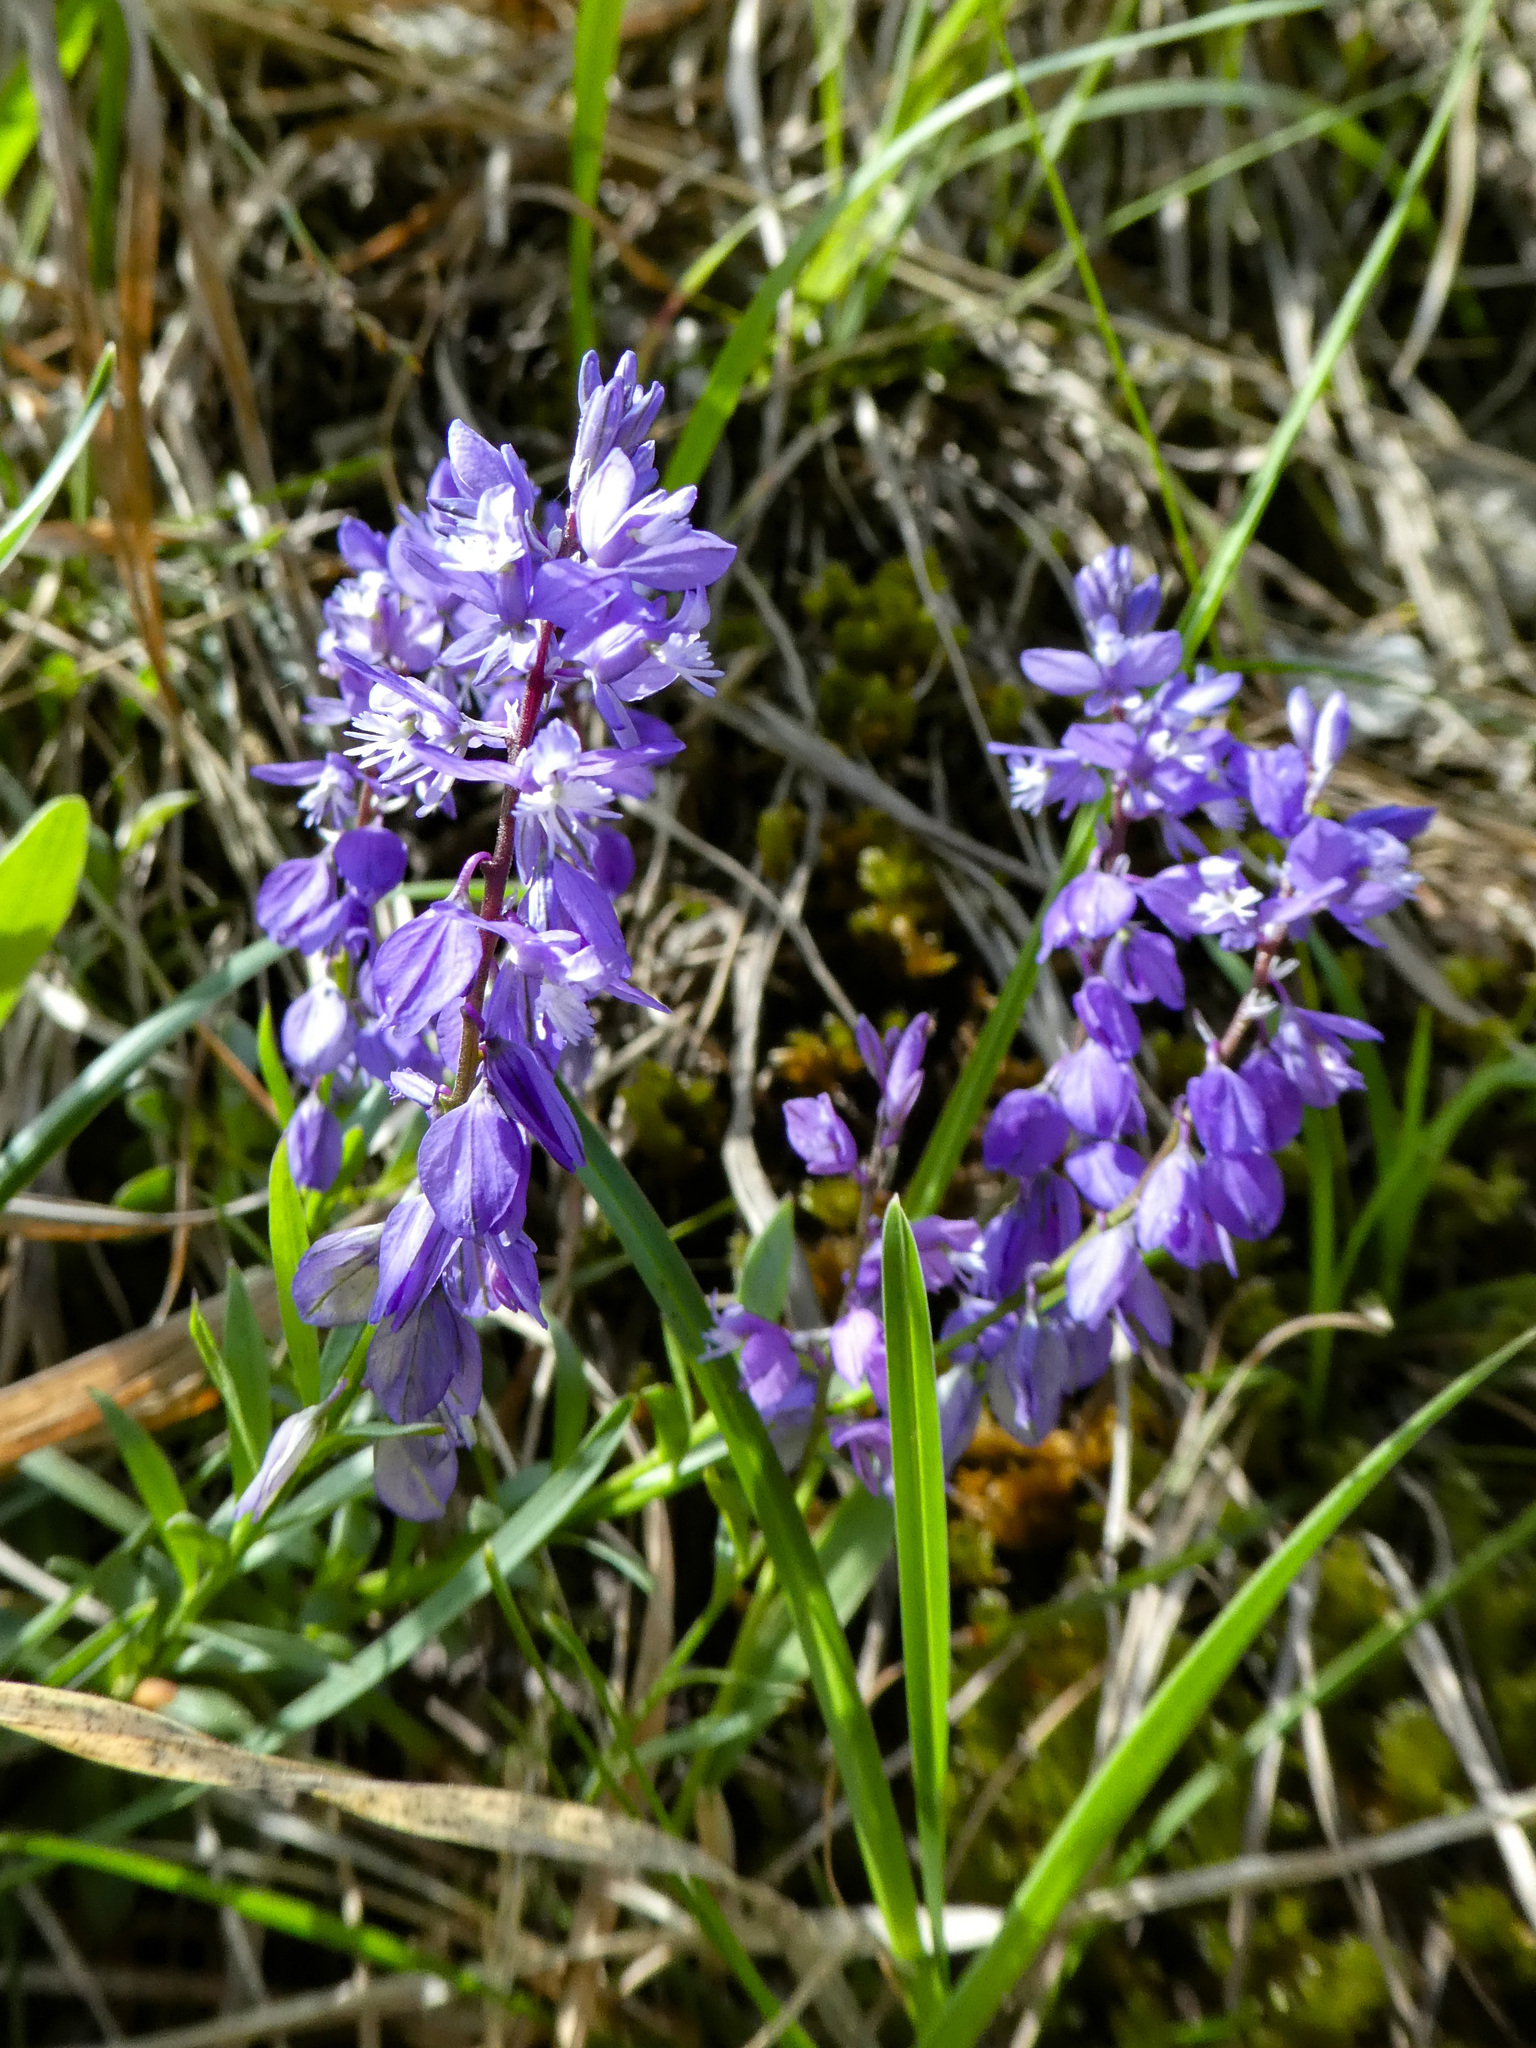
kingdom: Plantae
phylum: Tracheophyta
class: Magnoliopsida
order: Fabales
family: Polygalaceae
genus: Polygala
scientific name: Polygala vulgaris
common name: Common milkwort
